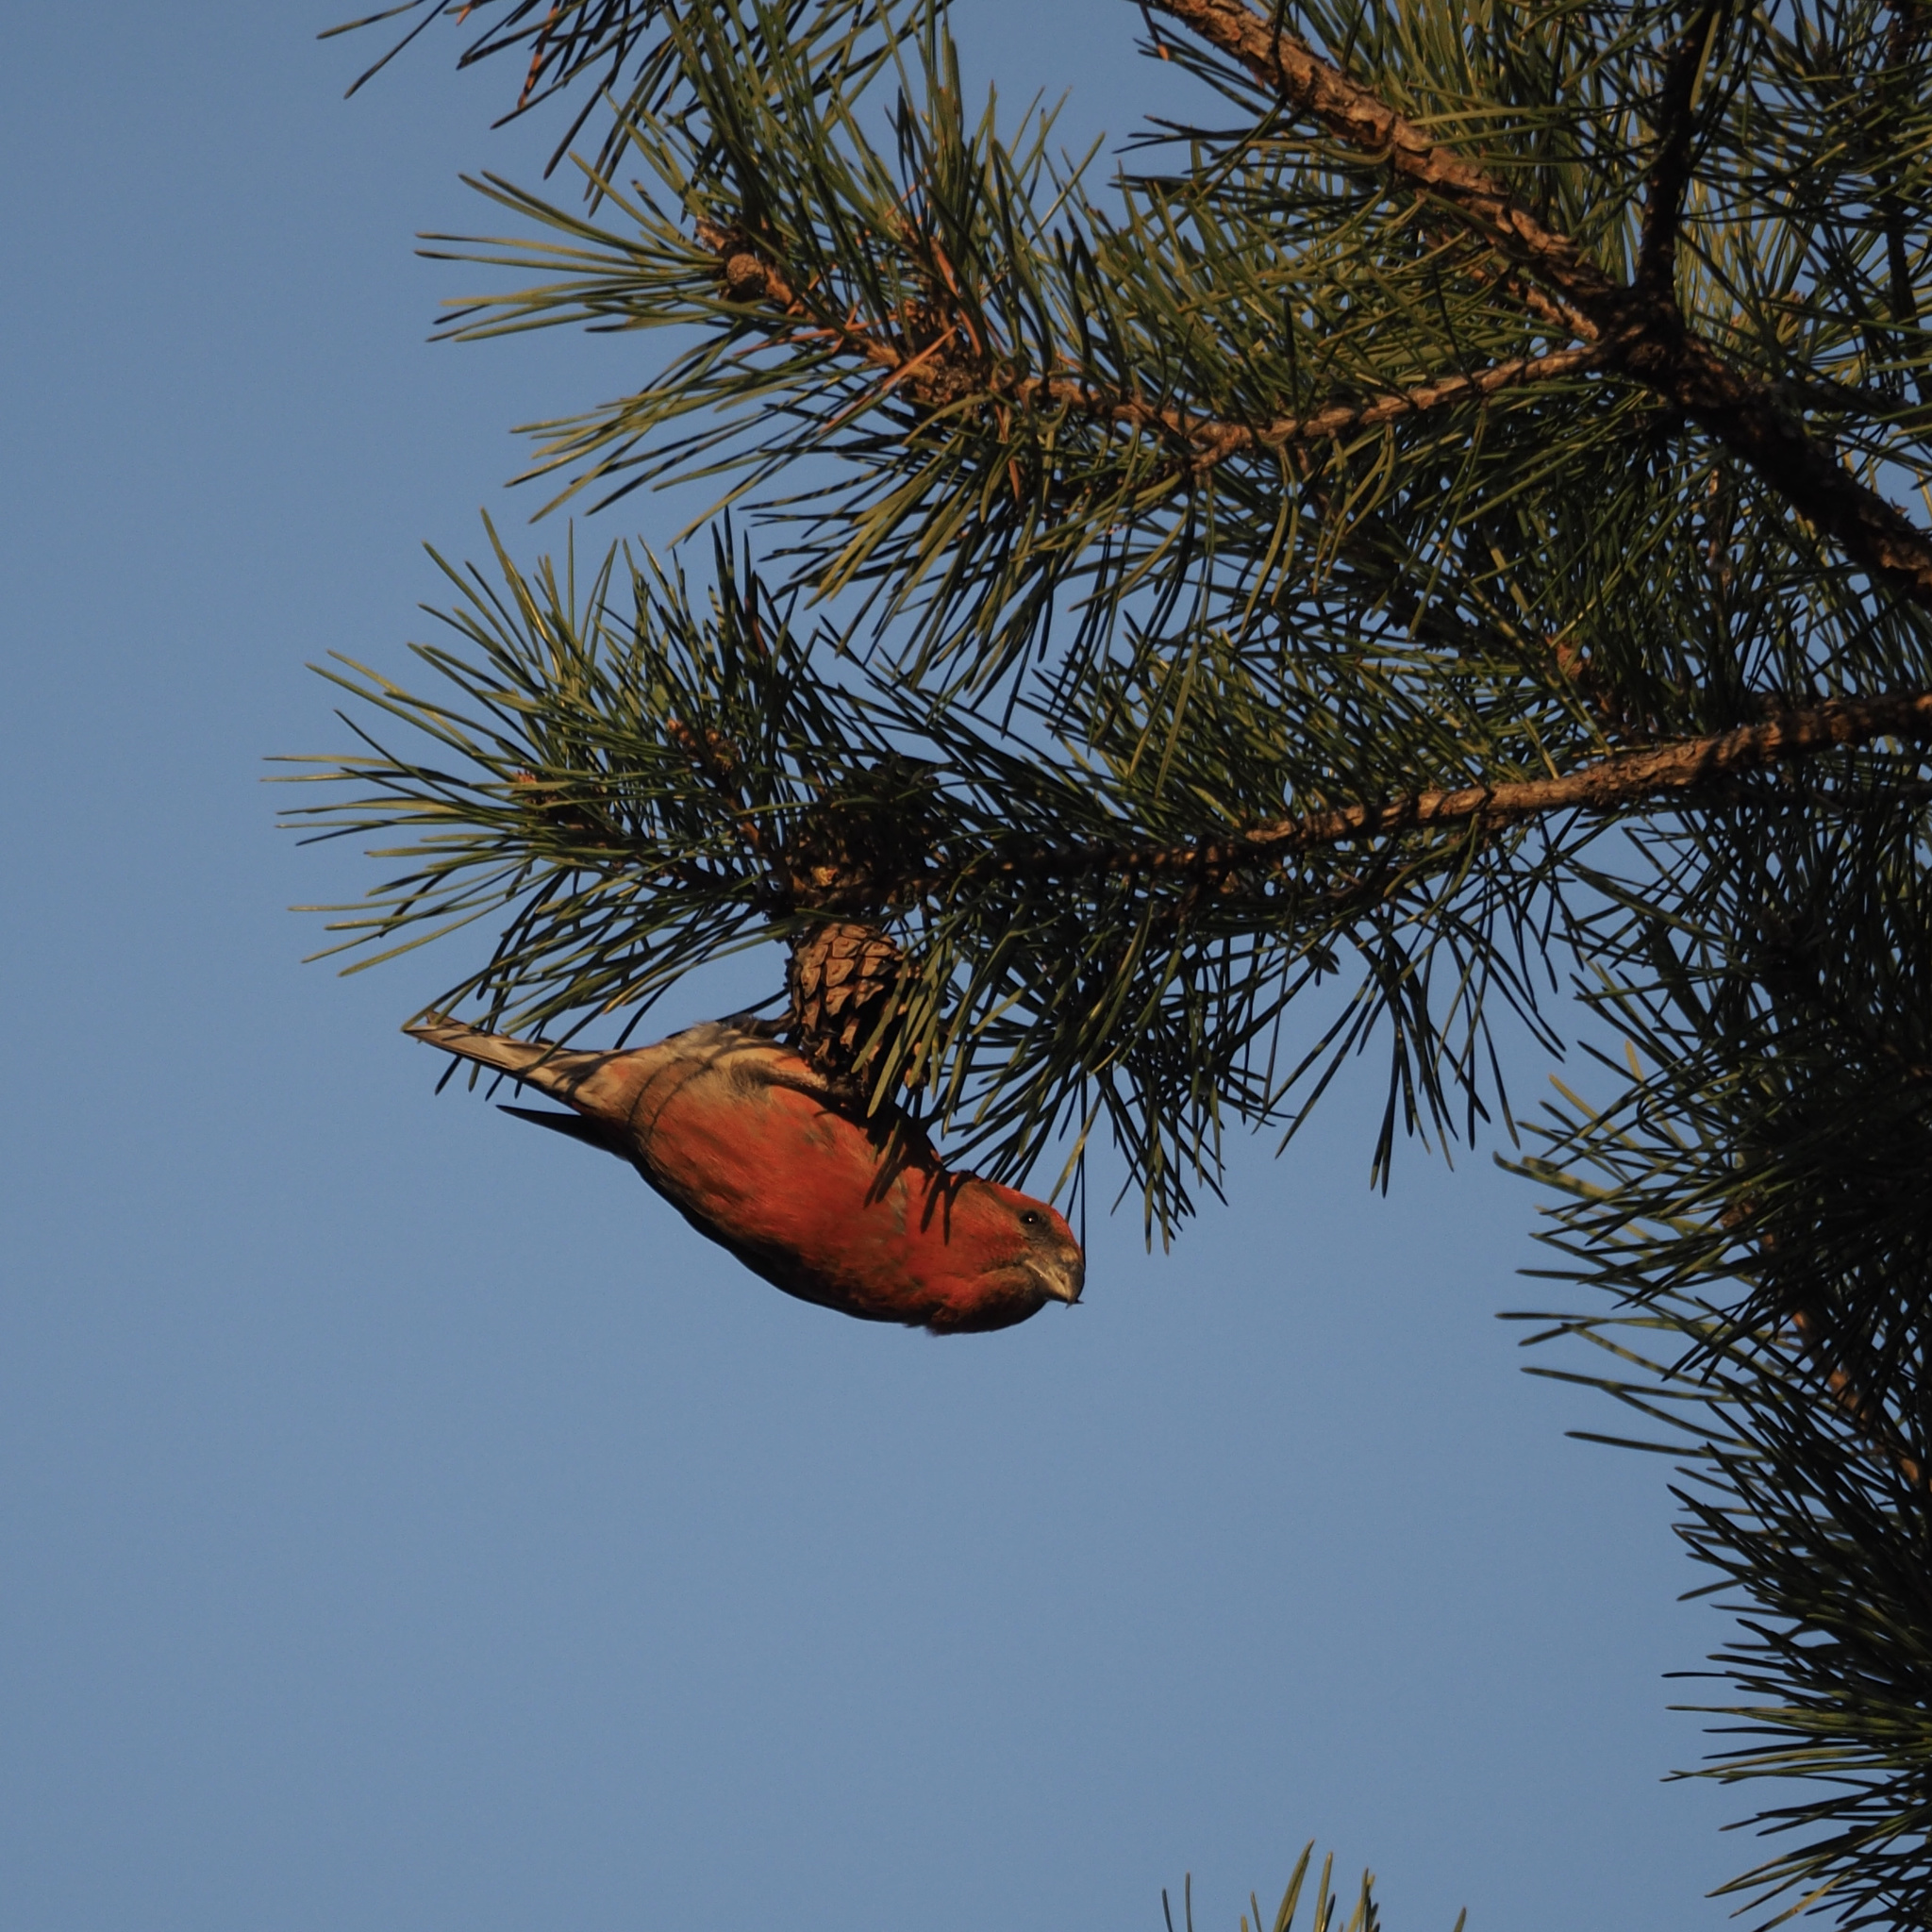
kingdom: Animalia
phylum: Chordata
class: Aves
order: Passeriformes
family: Fringillidae
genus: Loxia
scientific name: Loxia curvirostra
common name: Red crossbill
